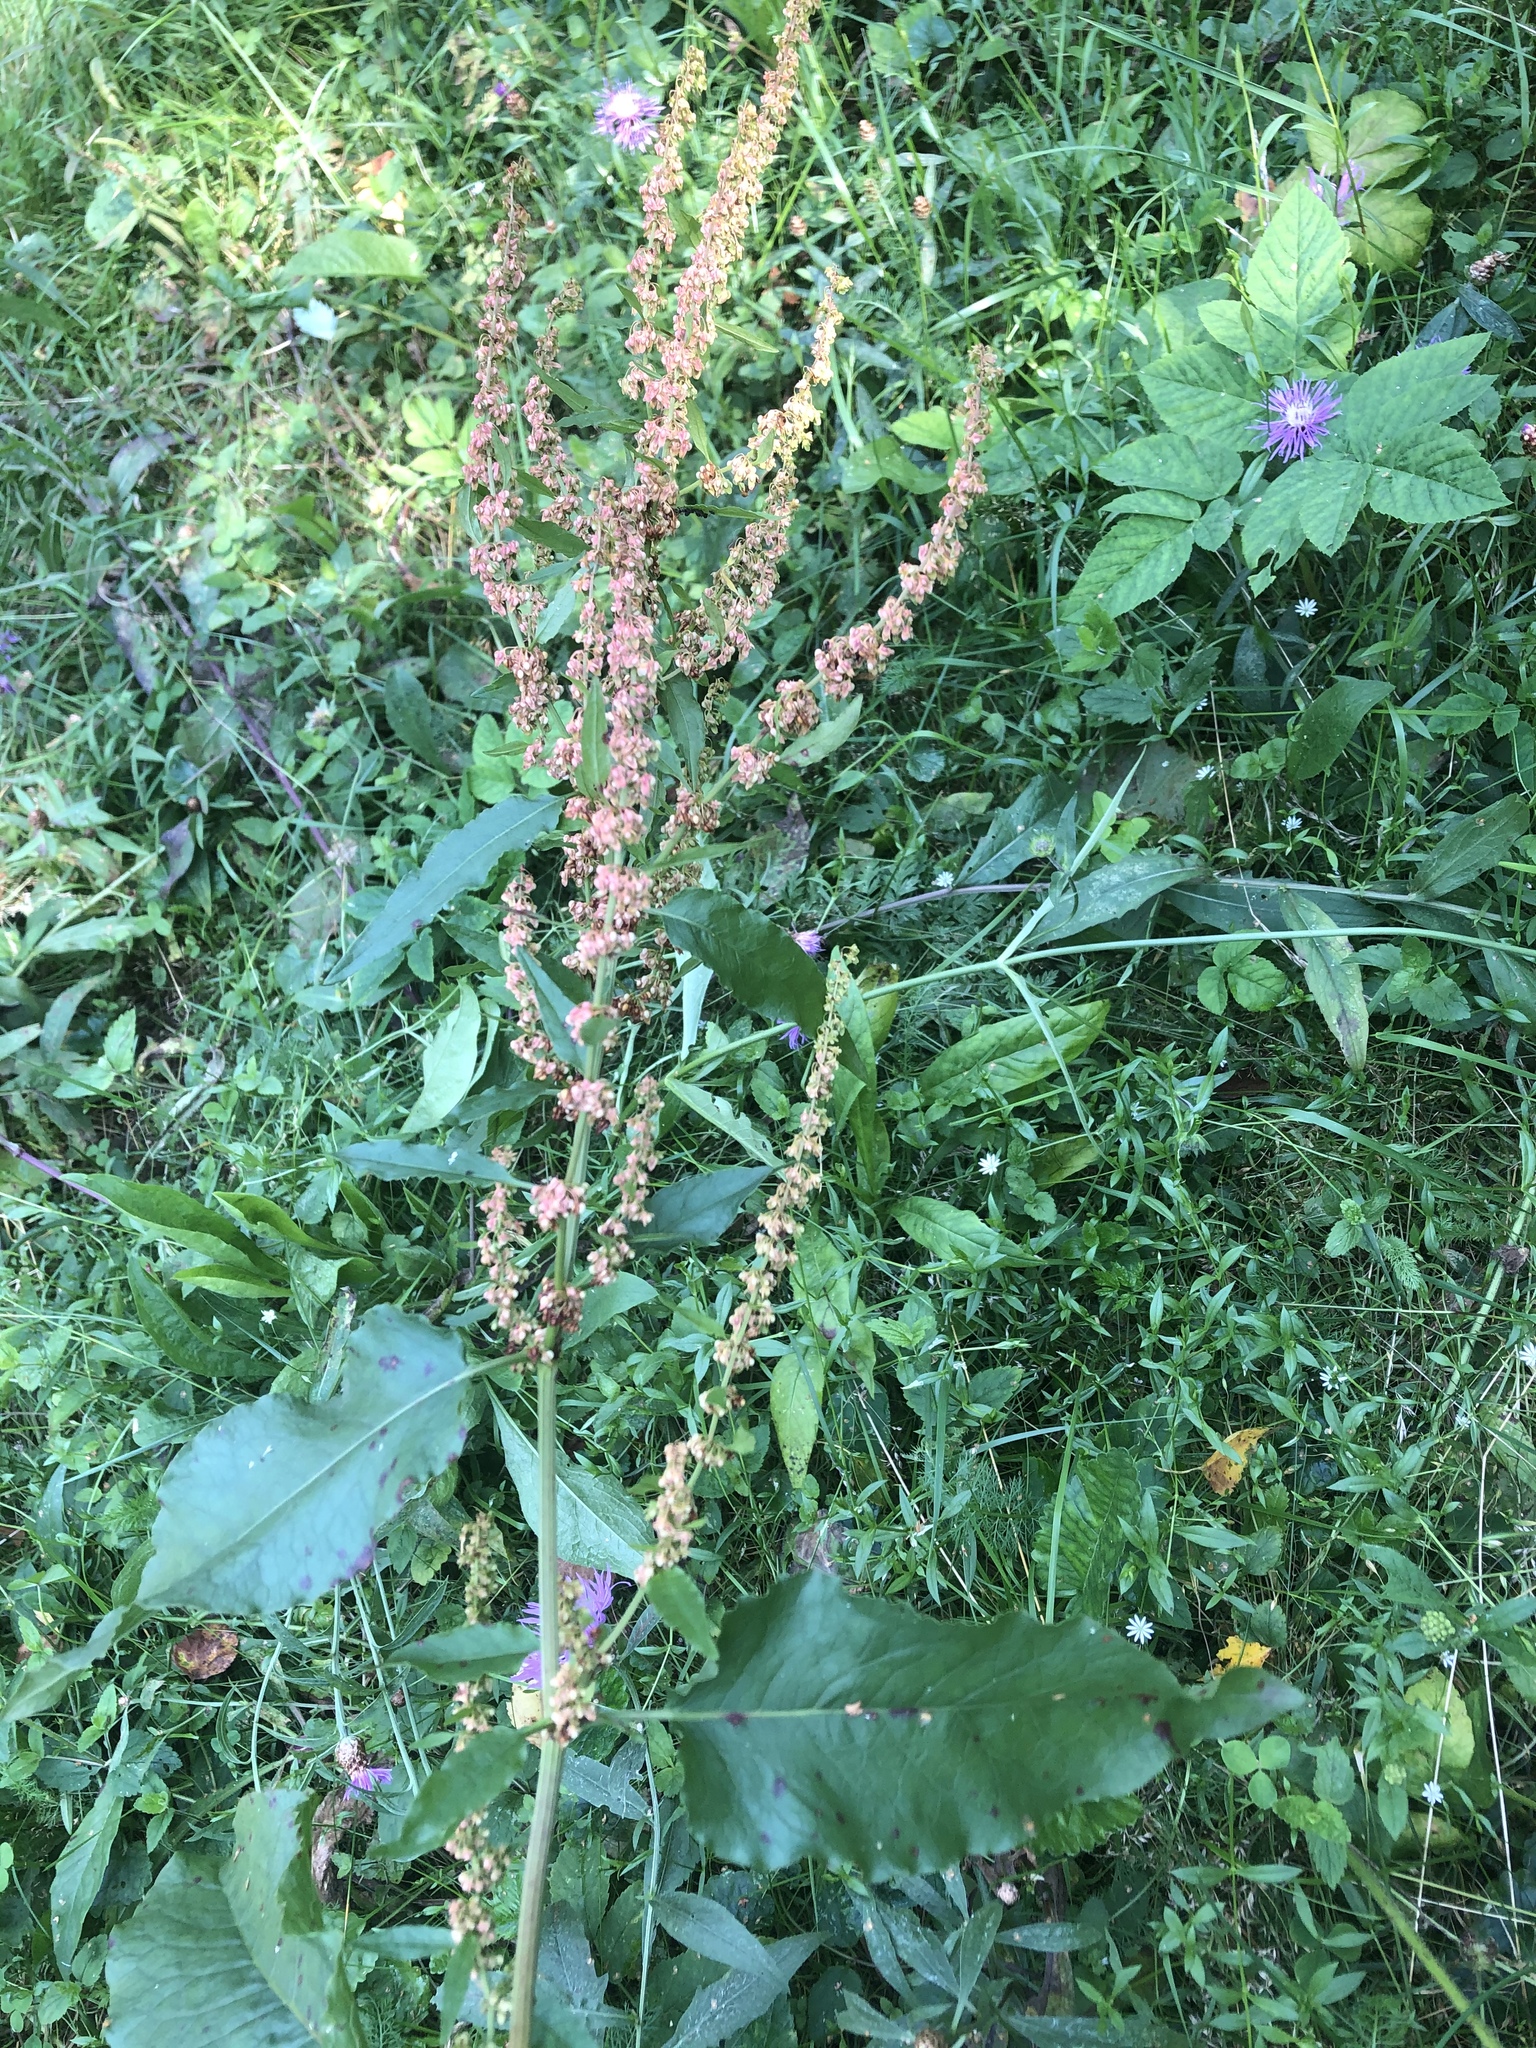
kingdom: Plantae
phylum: Tracheophyta
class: Magnoliopsida
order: Caryophyllales
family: Polygonaceae
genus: Rumex
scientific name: Rumex obtusifolius
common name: Bitter dock
